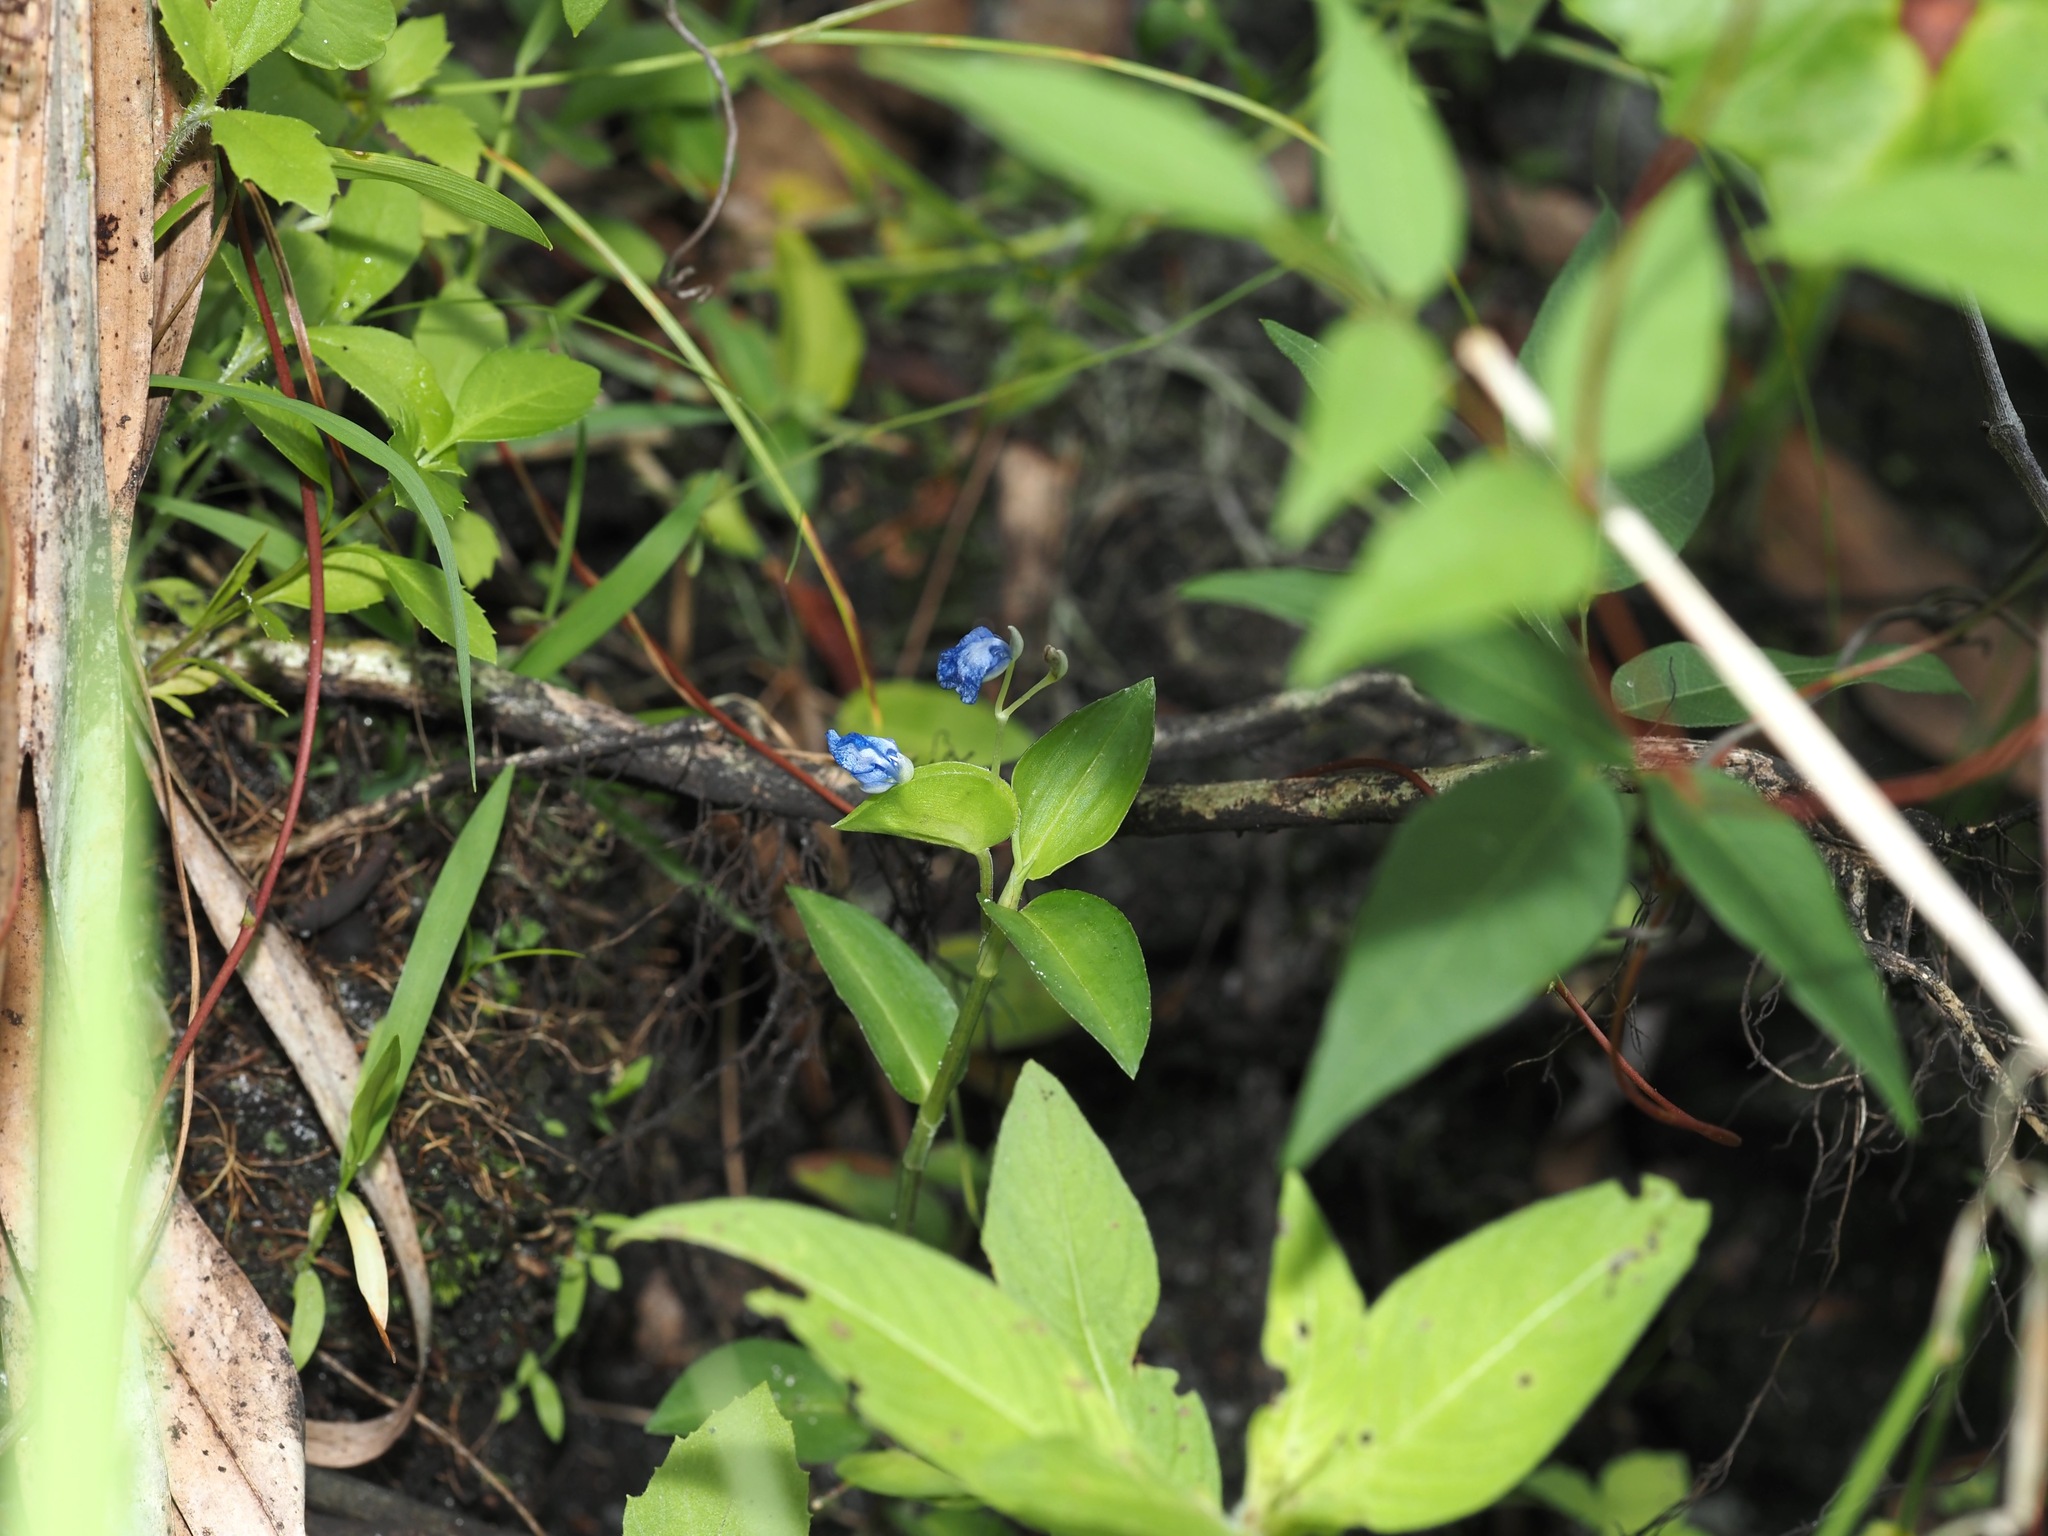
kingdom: Plantae
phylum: Tracheophyta
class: Magnoliopsida
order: Malvales
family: Malvaceae
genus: Urena
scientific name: Urena lobata
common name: Caesarweed
